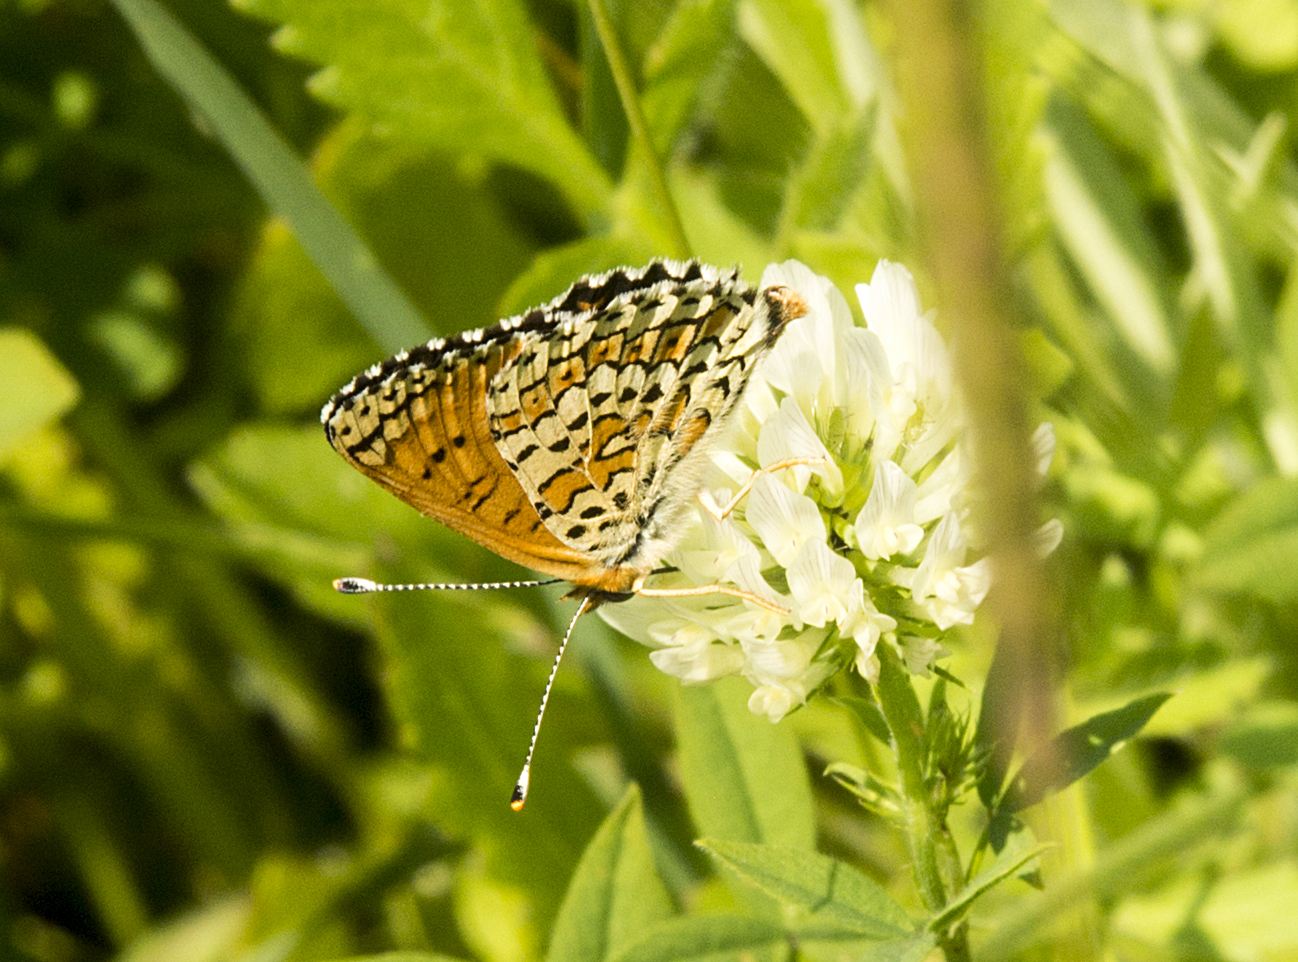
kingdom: Animalia
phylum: Arthropoda
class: Insecta
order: Lepidoptera
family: Nymphalidae
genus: Melitaea
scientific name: Melitaea cinxia
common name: Glanville fritillary
